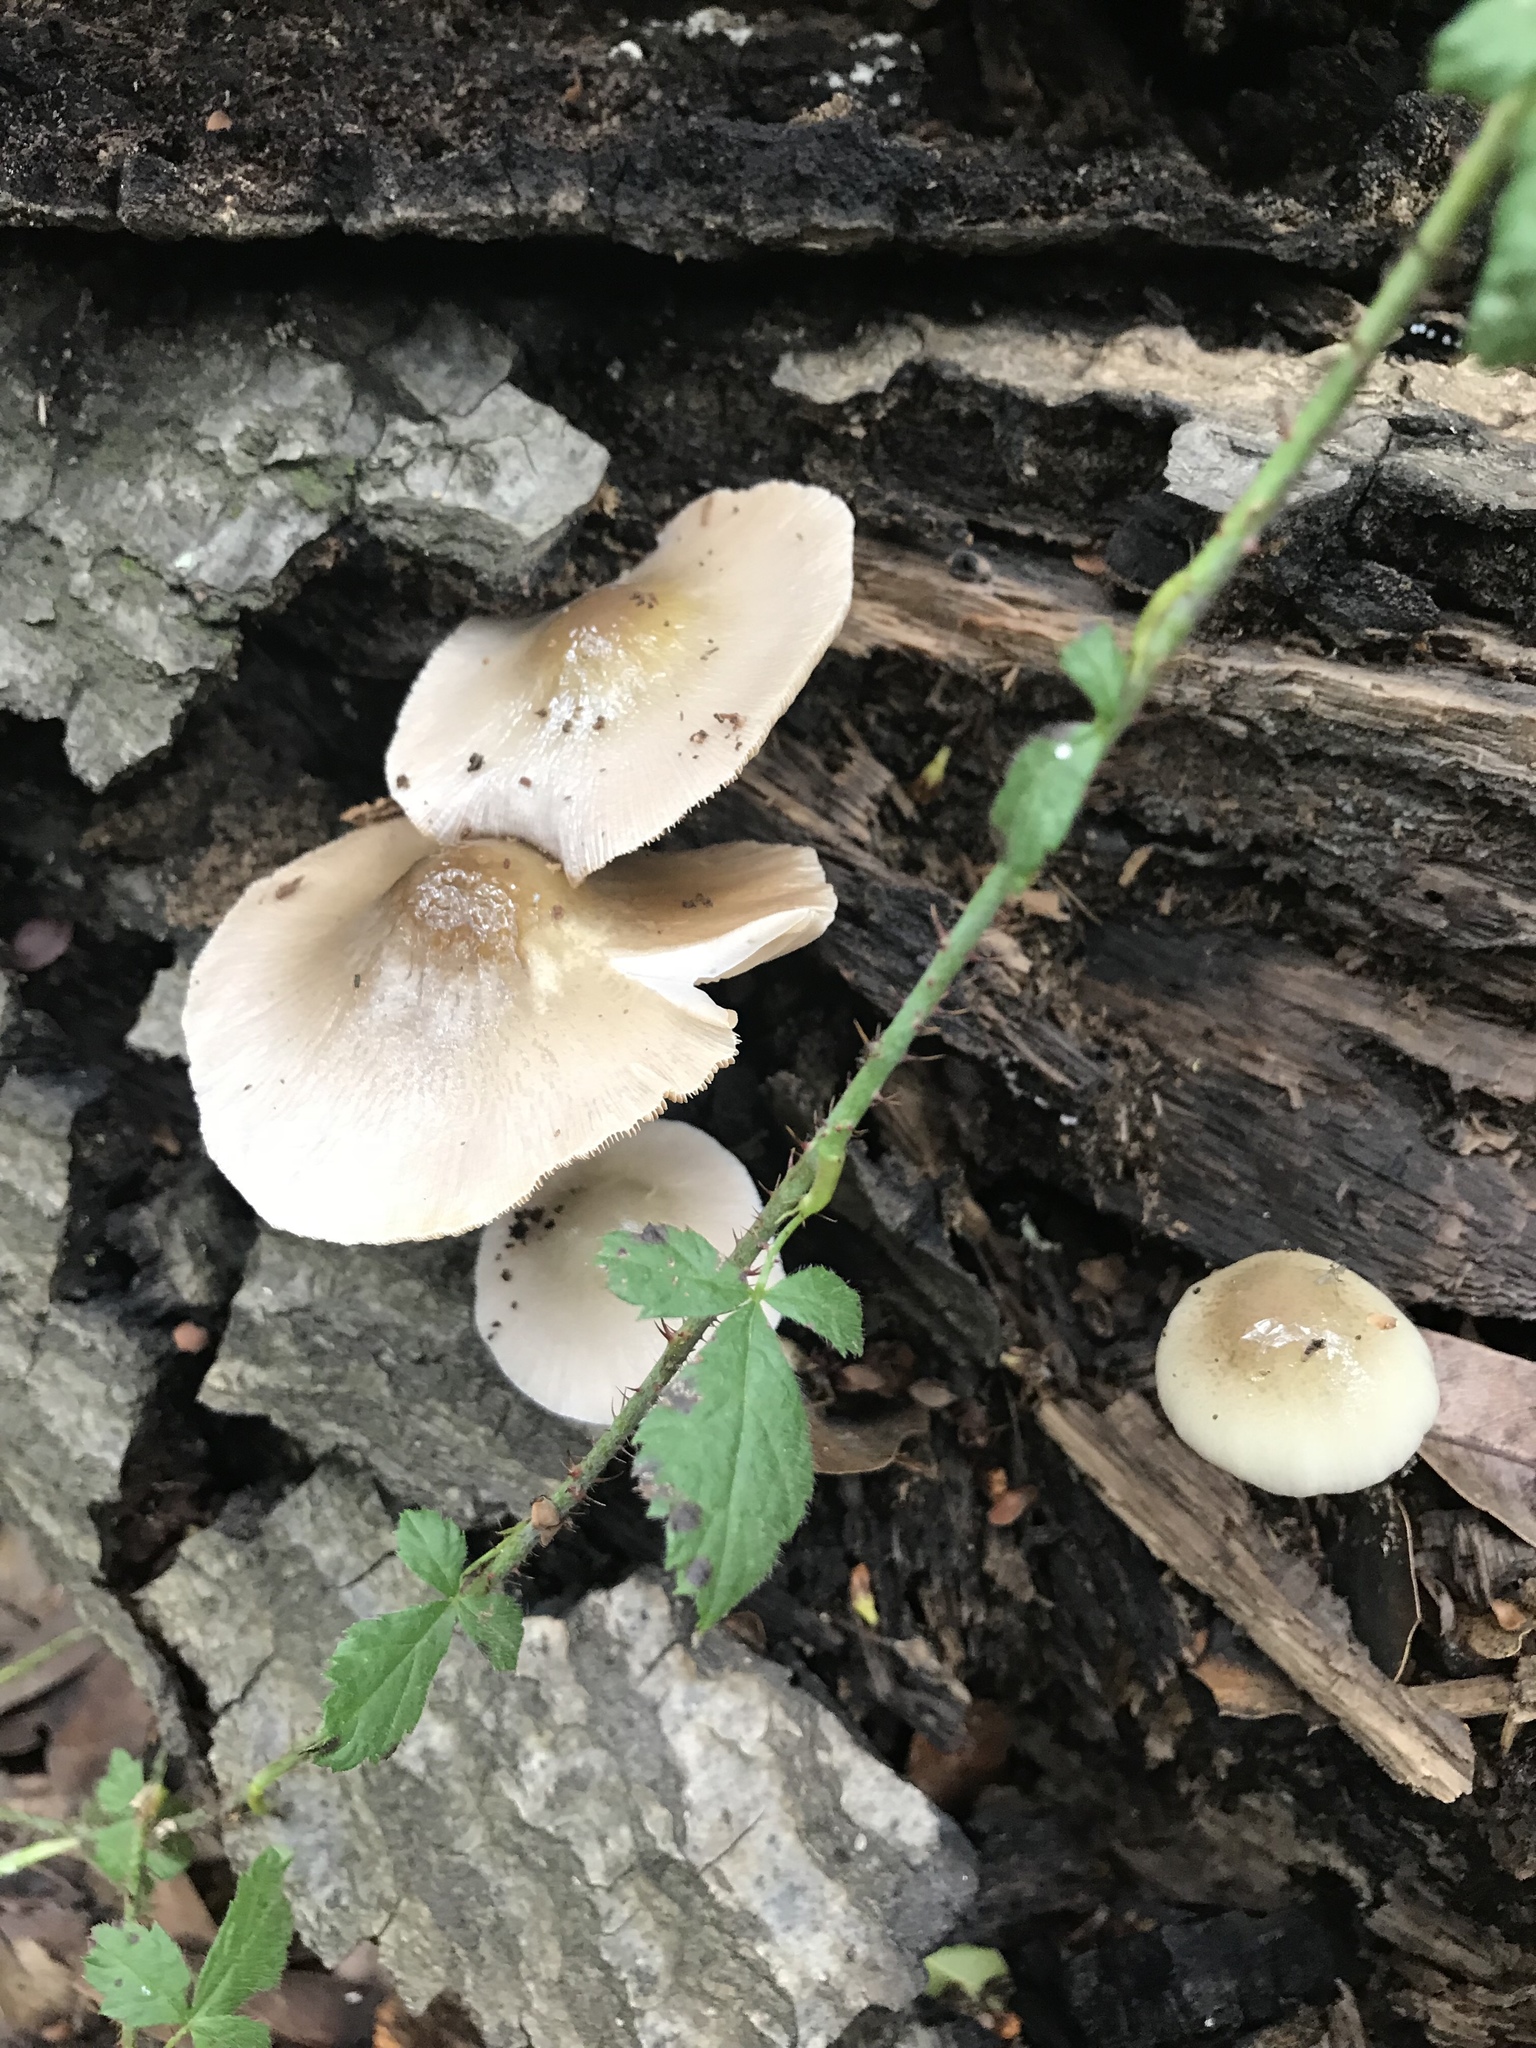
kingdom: Fungi
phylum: Basidiomycota
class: Agaricomycetes
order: Agaricales
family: Bolbitiaceae
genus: Bolbitius
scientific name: Bolbitius reticulatus
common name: Netted fieldcap
